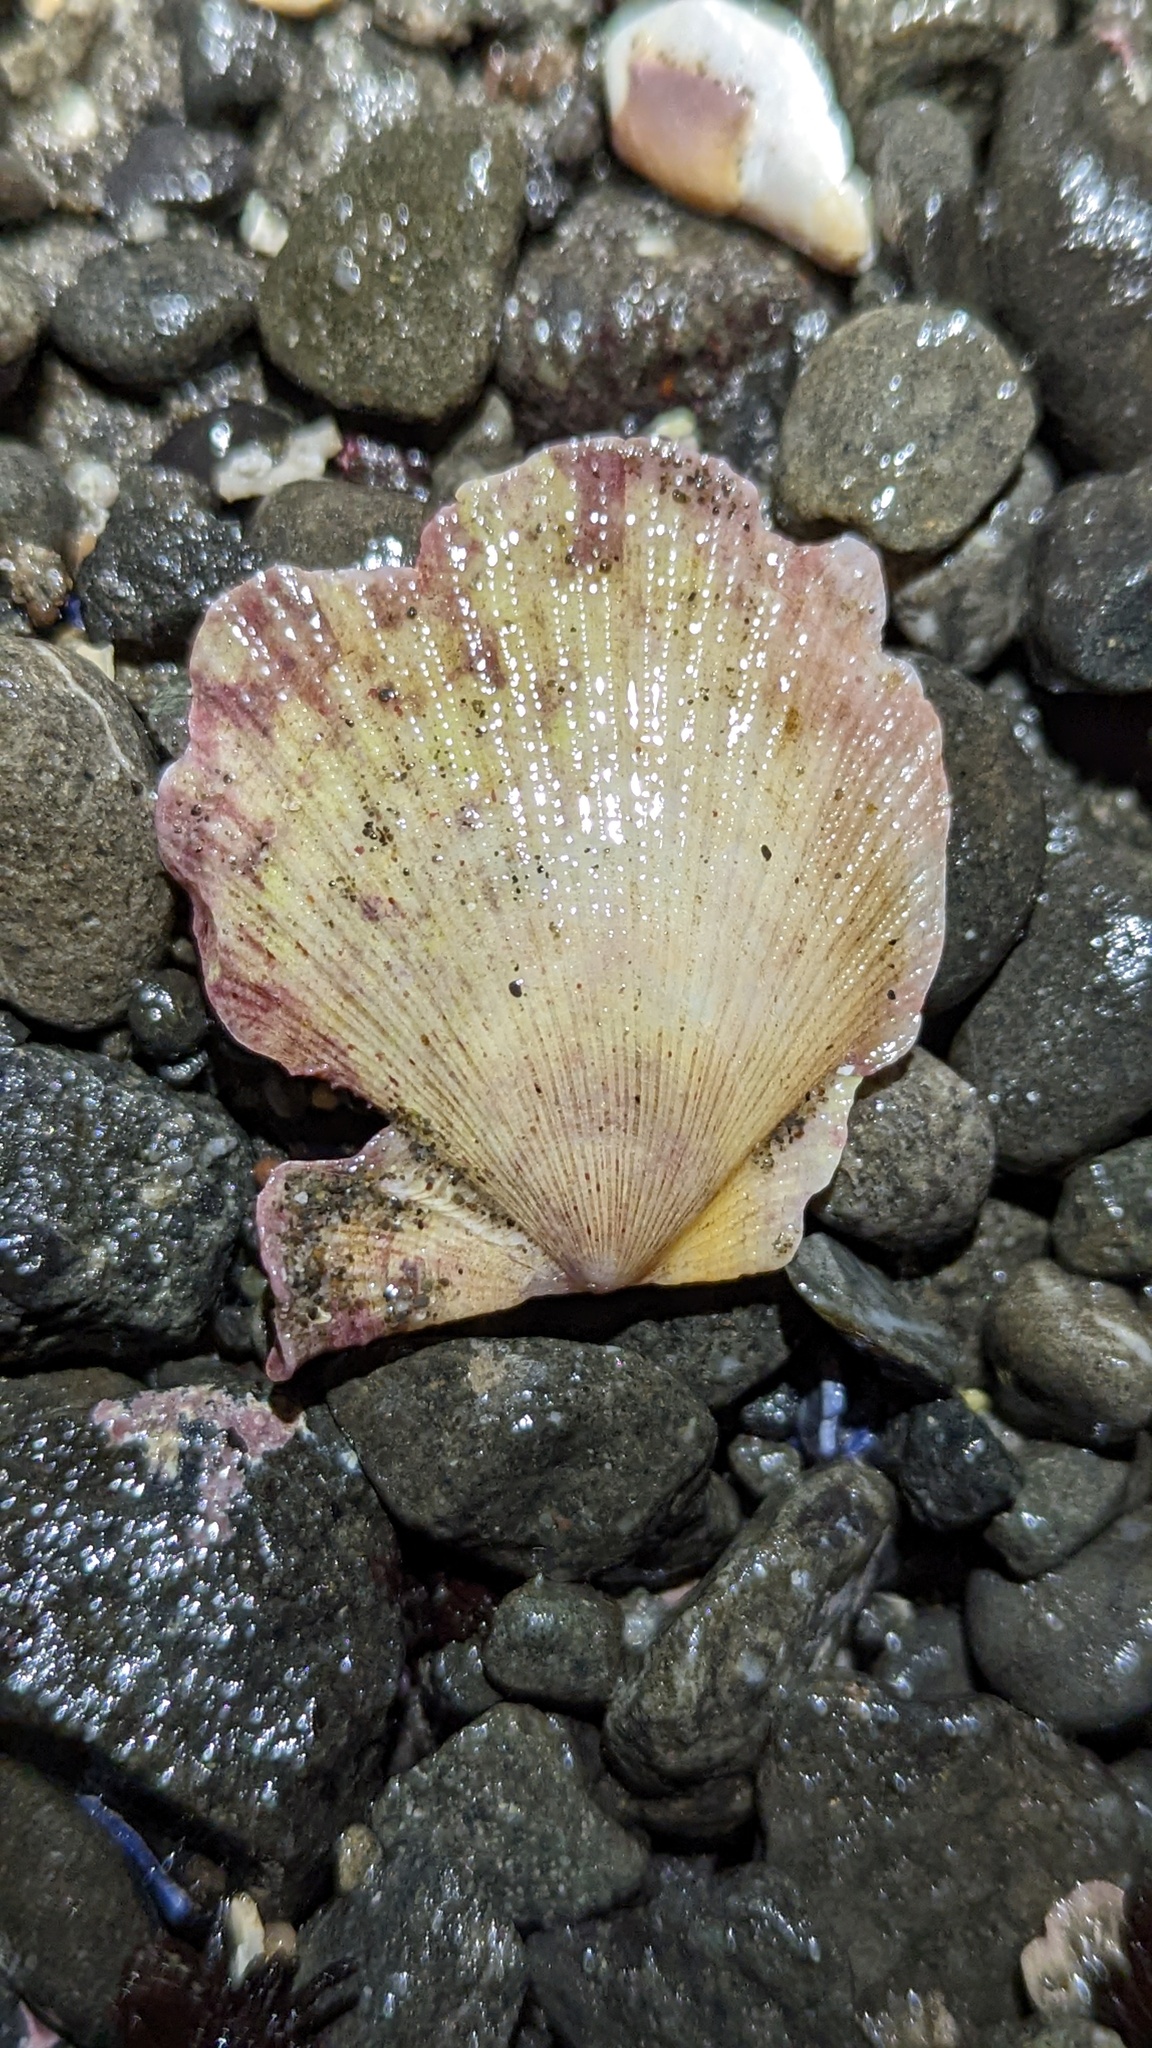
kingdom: Animalia
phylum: Mollusca
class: Bivalvia
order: Pectinida
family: Pectinidae
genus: Crassadoma
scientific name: Crassadoma gigantea
